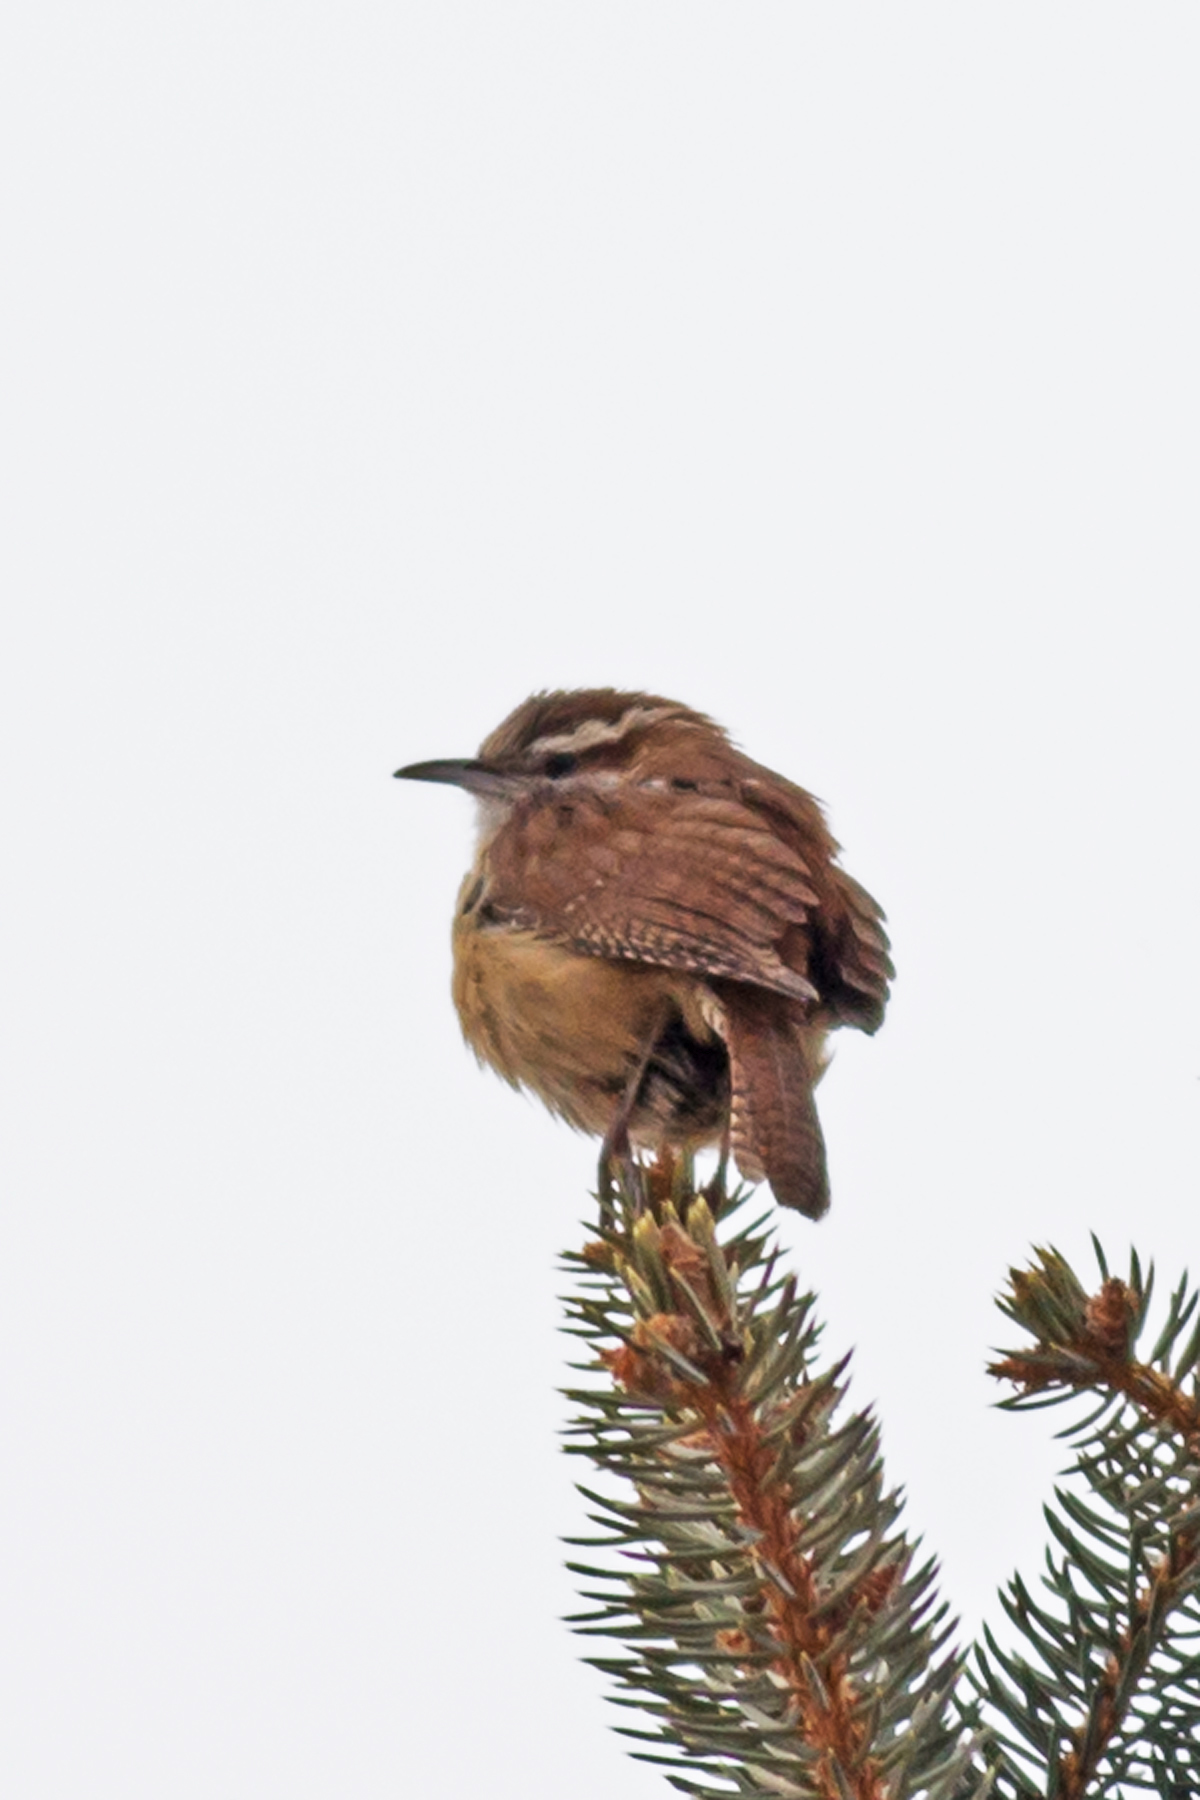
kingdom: Animalia
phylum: Chordata
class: Aves
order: Passeriformes
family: Troglodytidae
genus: Thryothorus
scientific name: Thryothorus ludovicianus
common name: Carolina wren
